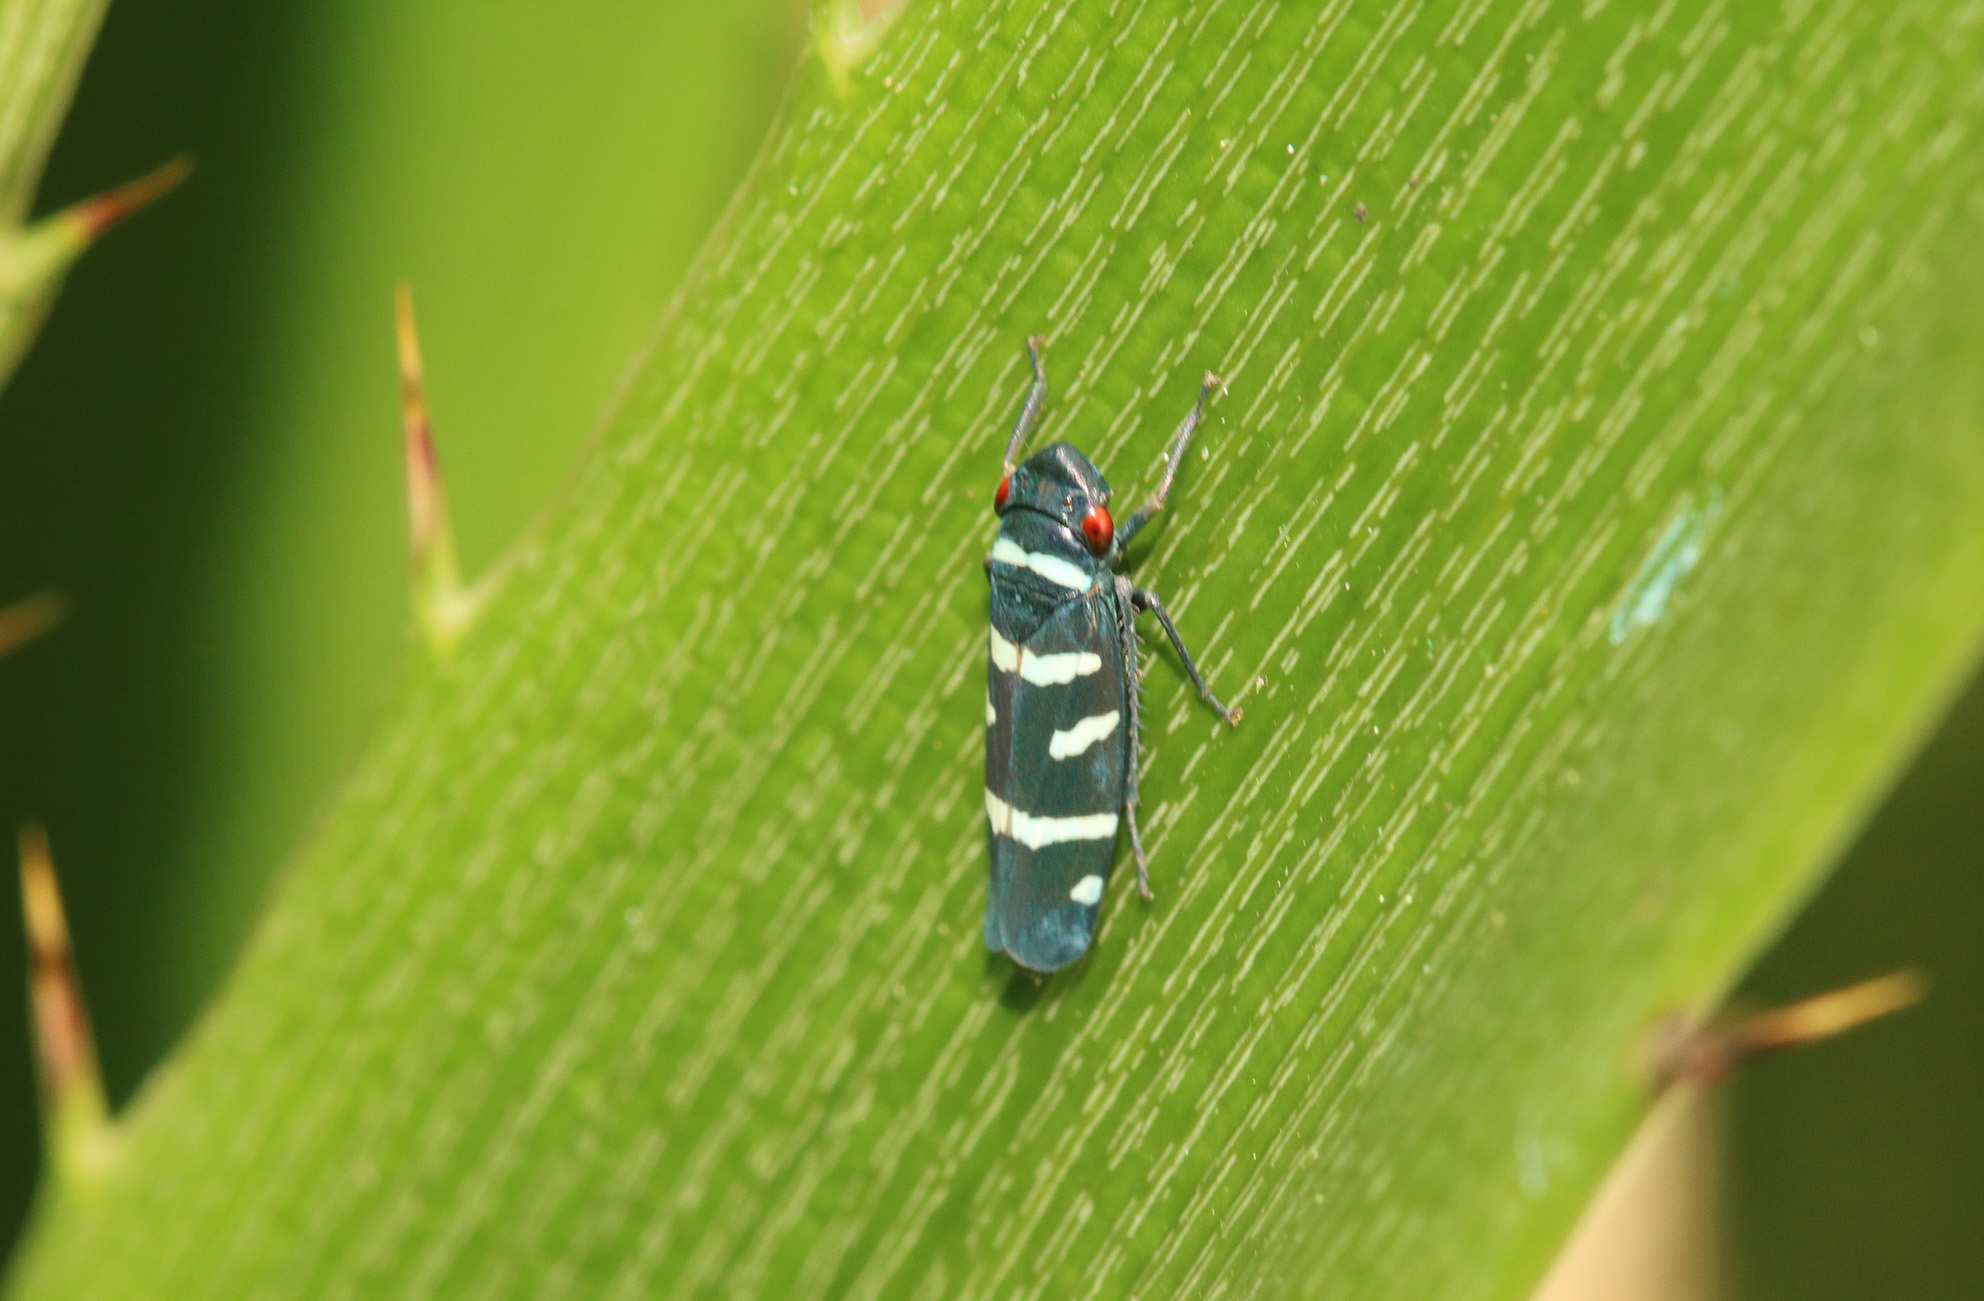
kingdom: Animalia
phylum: Arthropoda
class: Insecta
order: Hemiptera
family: Cicadellidae
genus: Balacha
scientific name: Balacha melanocephala
